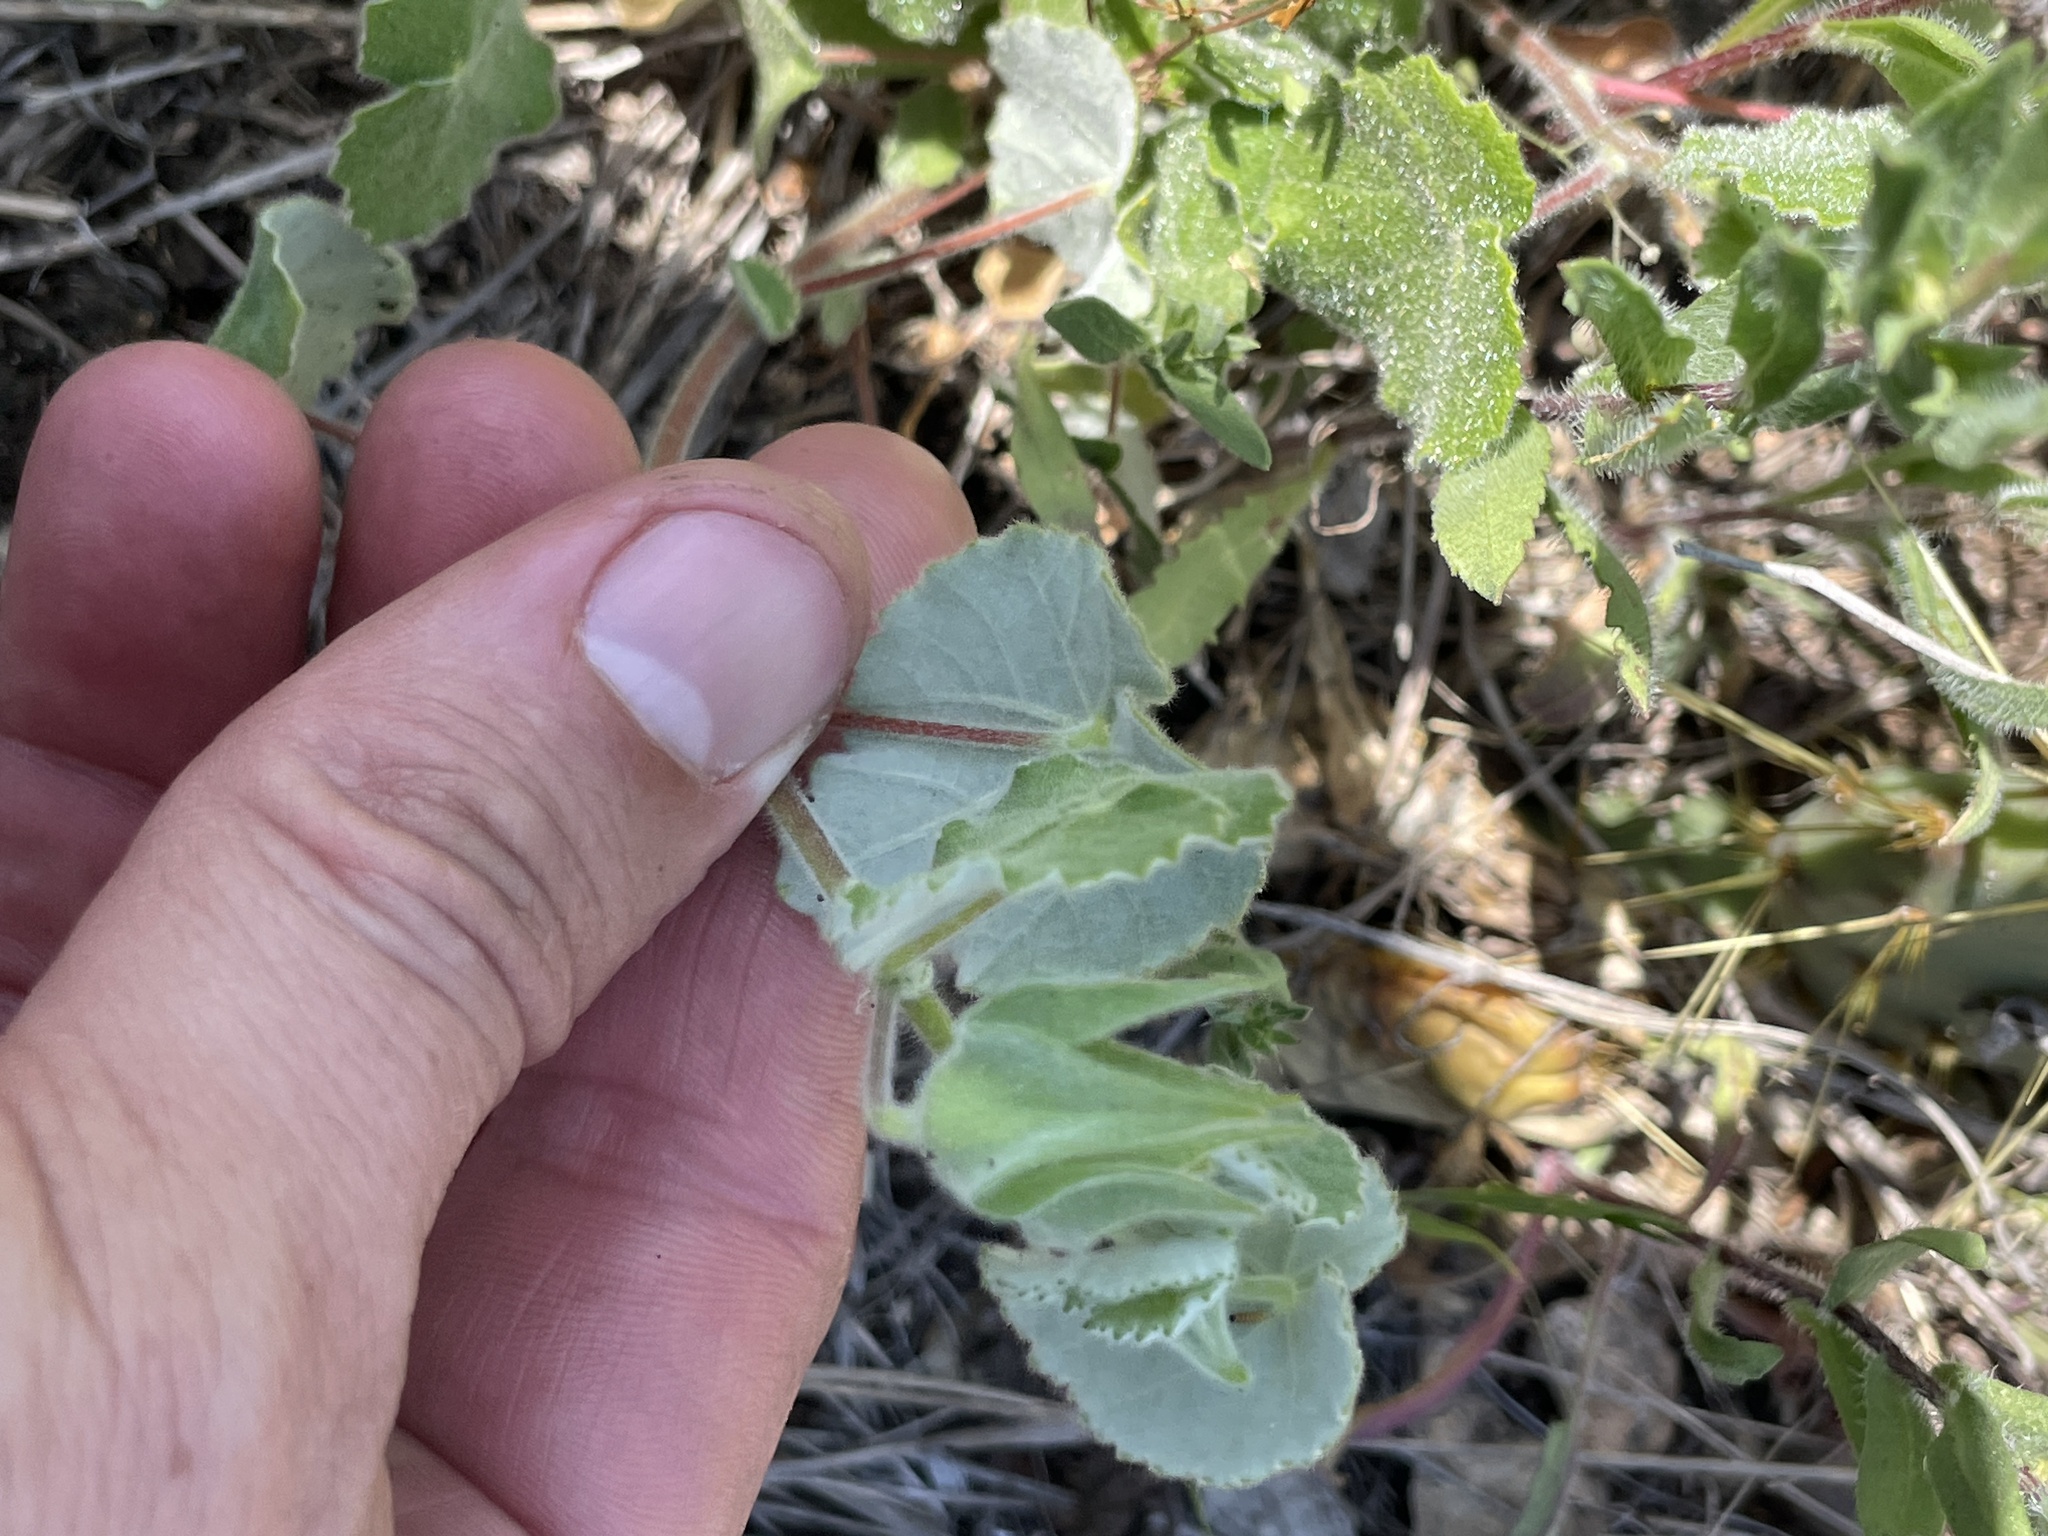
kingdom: Plantae
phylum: Tracheophyta
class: Magnoliopsida
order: Malvales
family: Malvaceae
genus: Abutilon
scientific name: Abutilon wrightii
